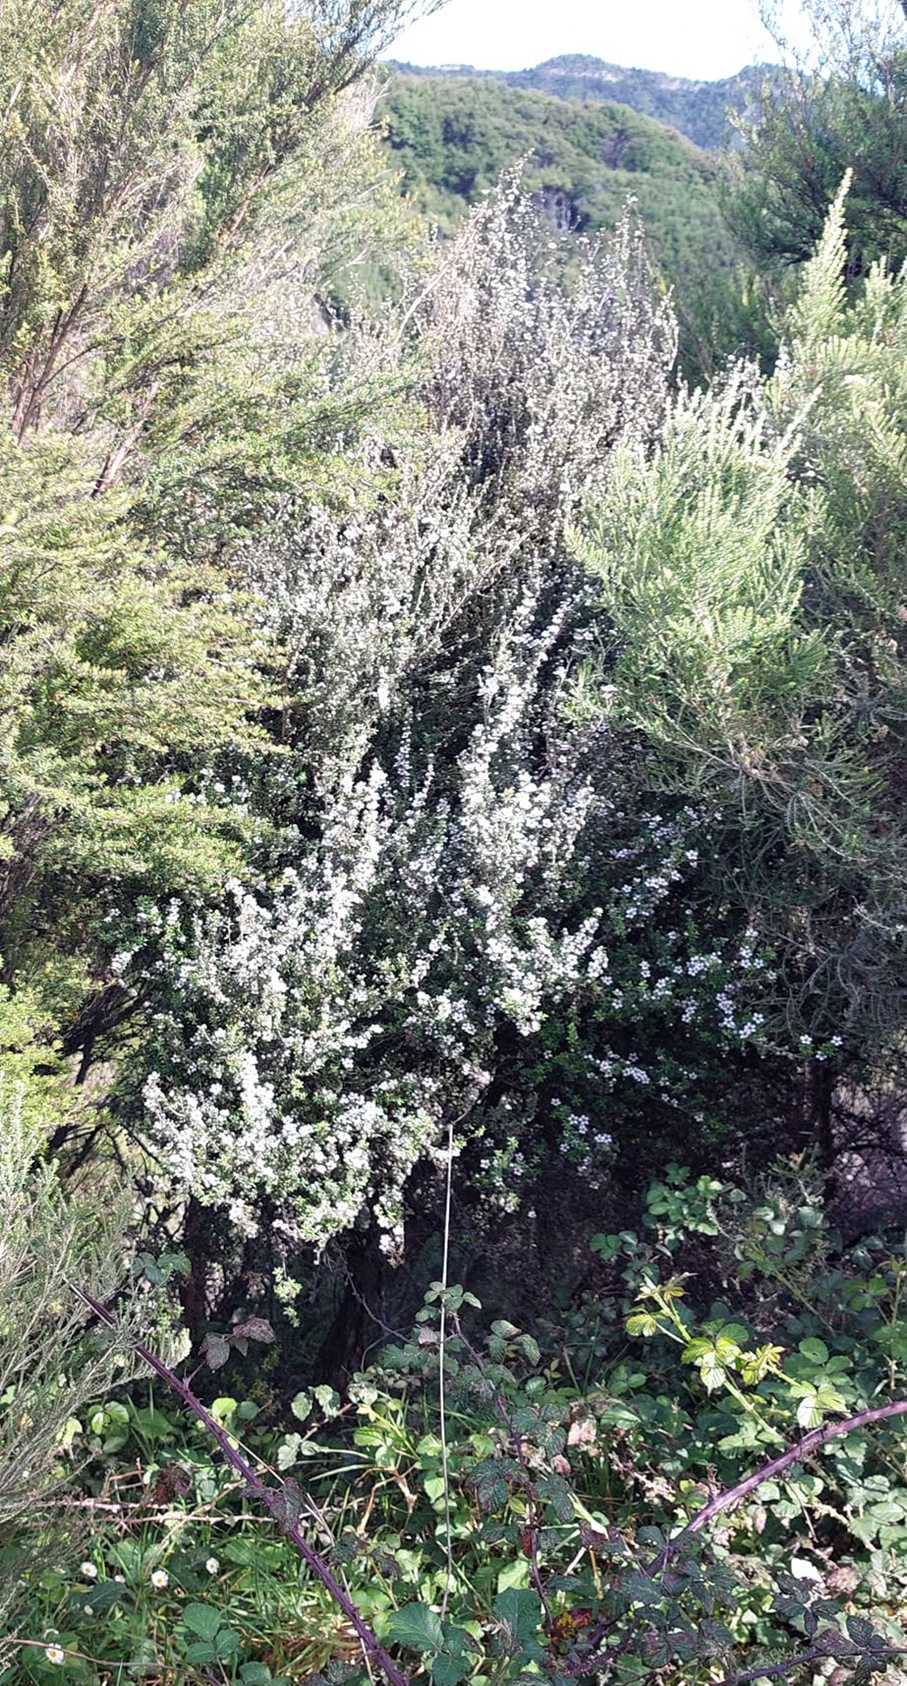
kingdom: Plantae
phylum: Tracheophyta
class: Magnoliopsida
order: Myrtales
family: Myrtaceae
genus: Leptospermum
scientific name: Leptospermum scoparium
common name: Broom tea-tree
